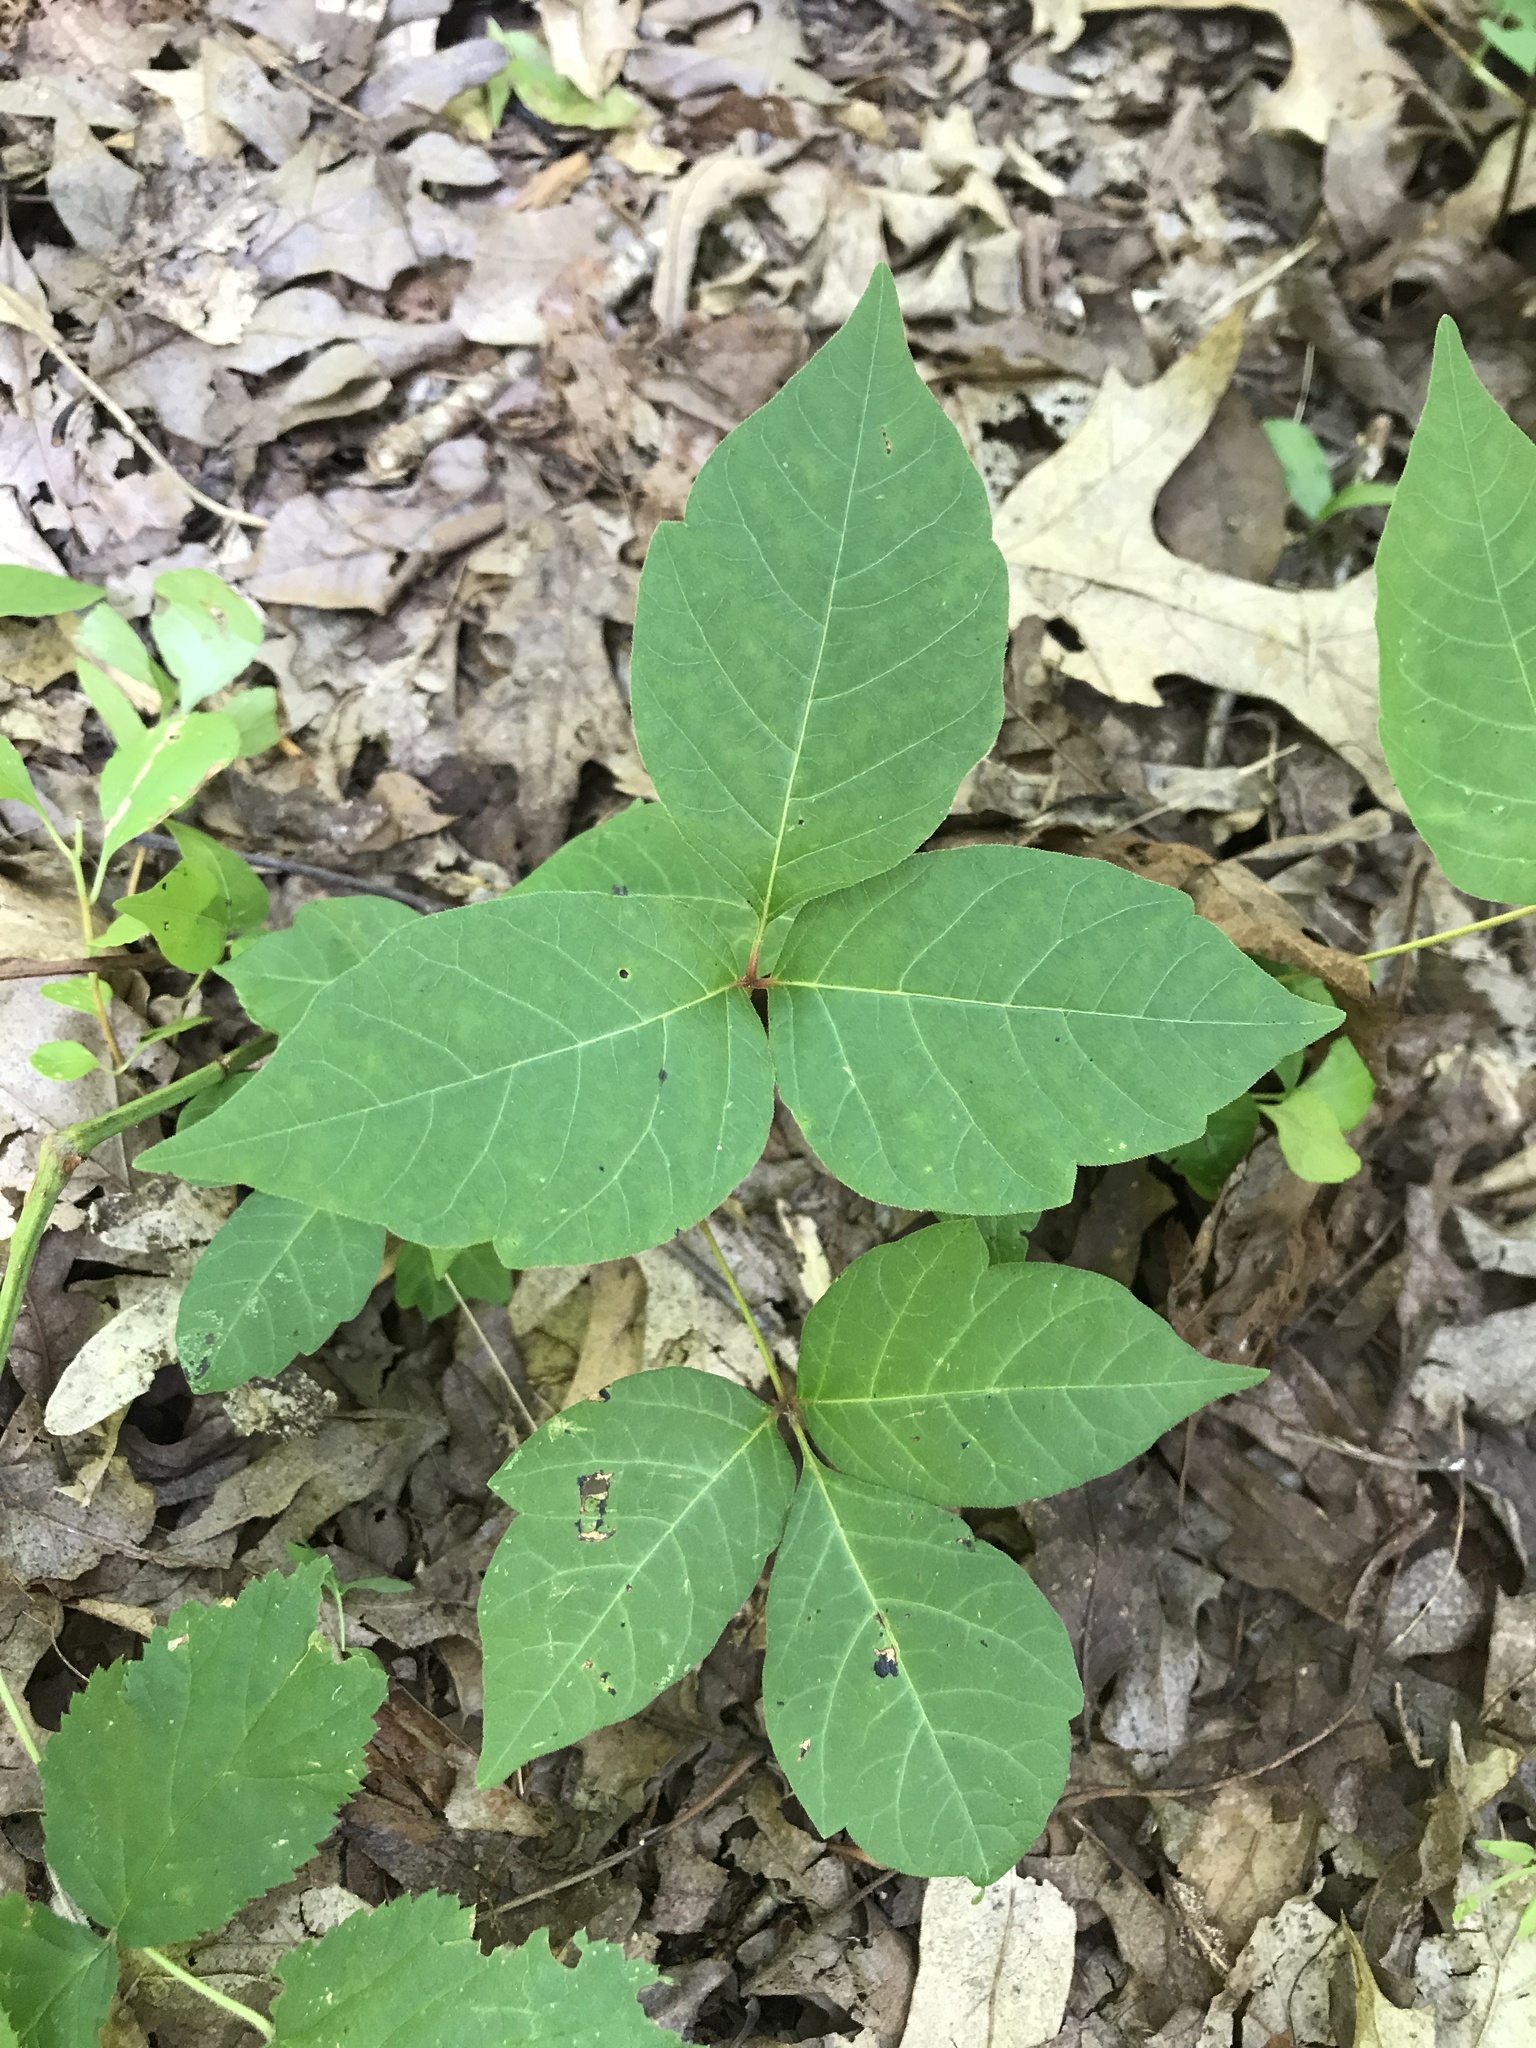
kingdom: Plantae
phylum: Tracheophyta
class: Magnoliopsida
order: Sapindales
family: Anacardiaceae
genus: Toxicodendron
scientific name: Toxicodendron radicans
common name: Poison ivy
